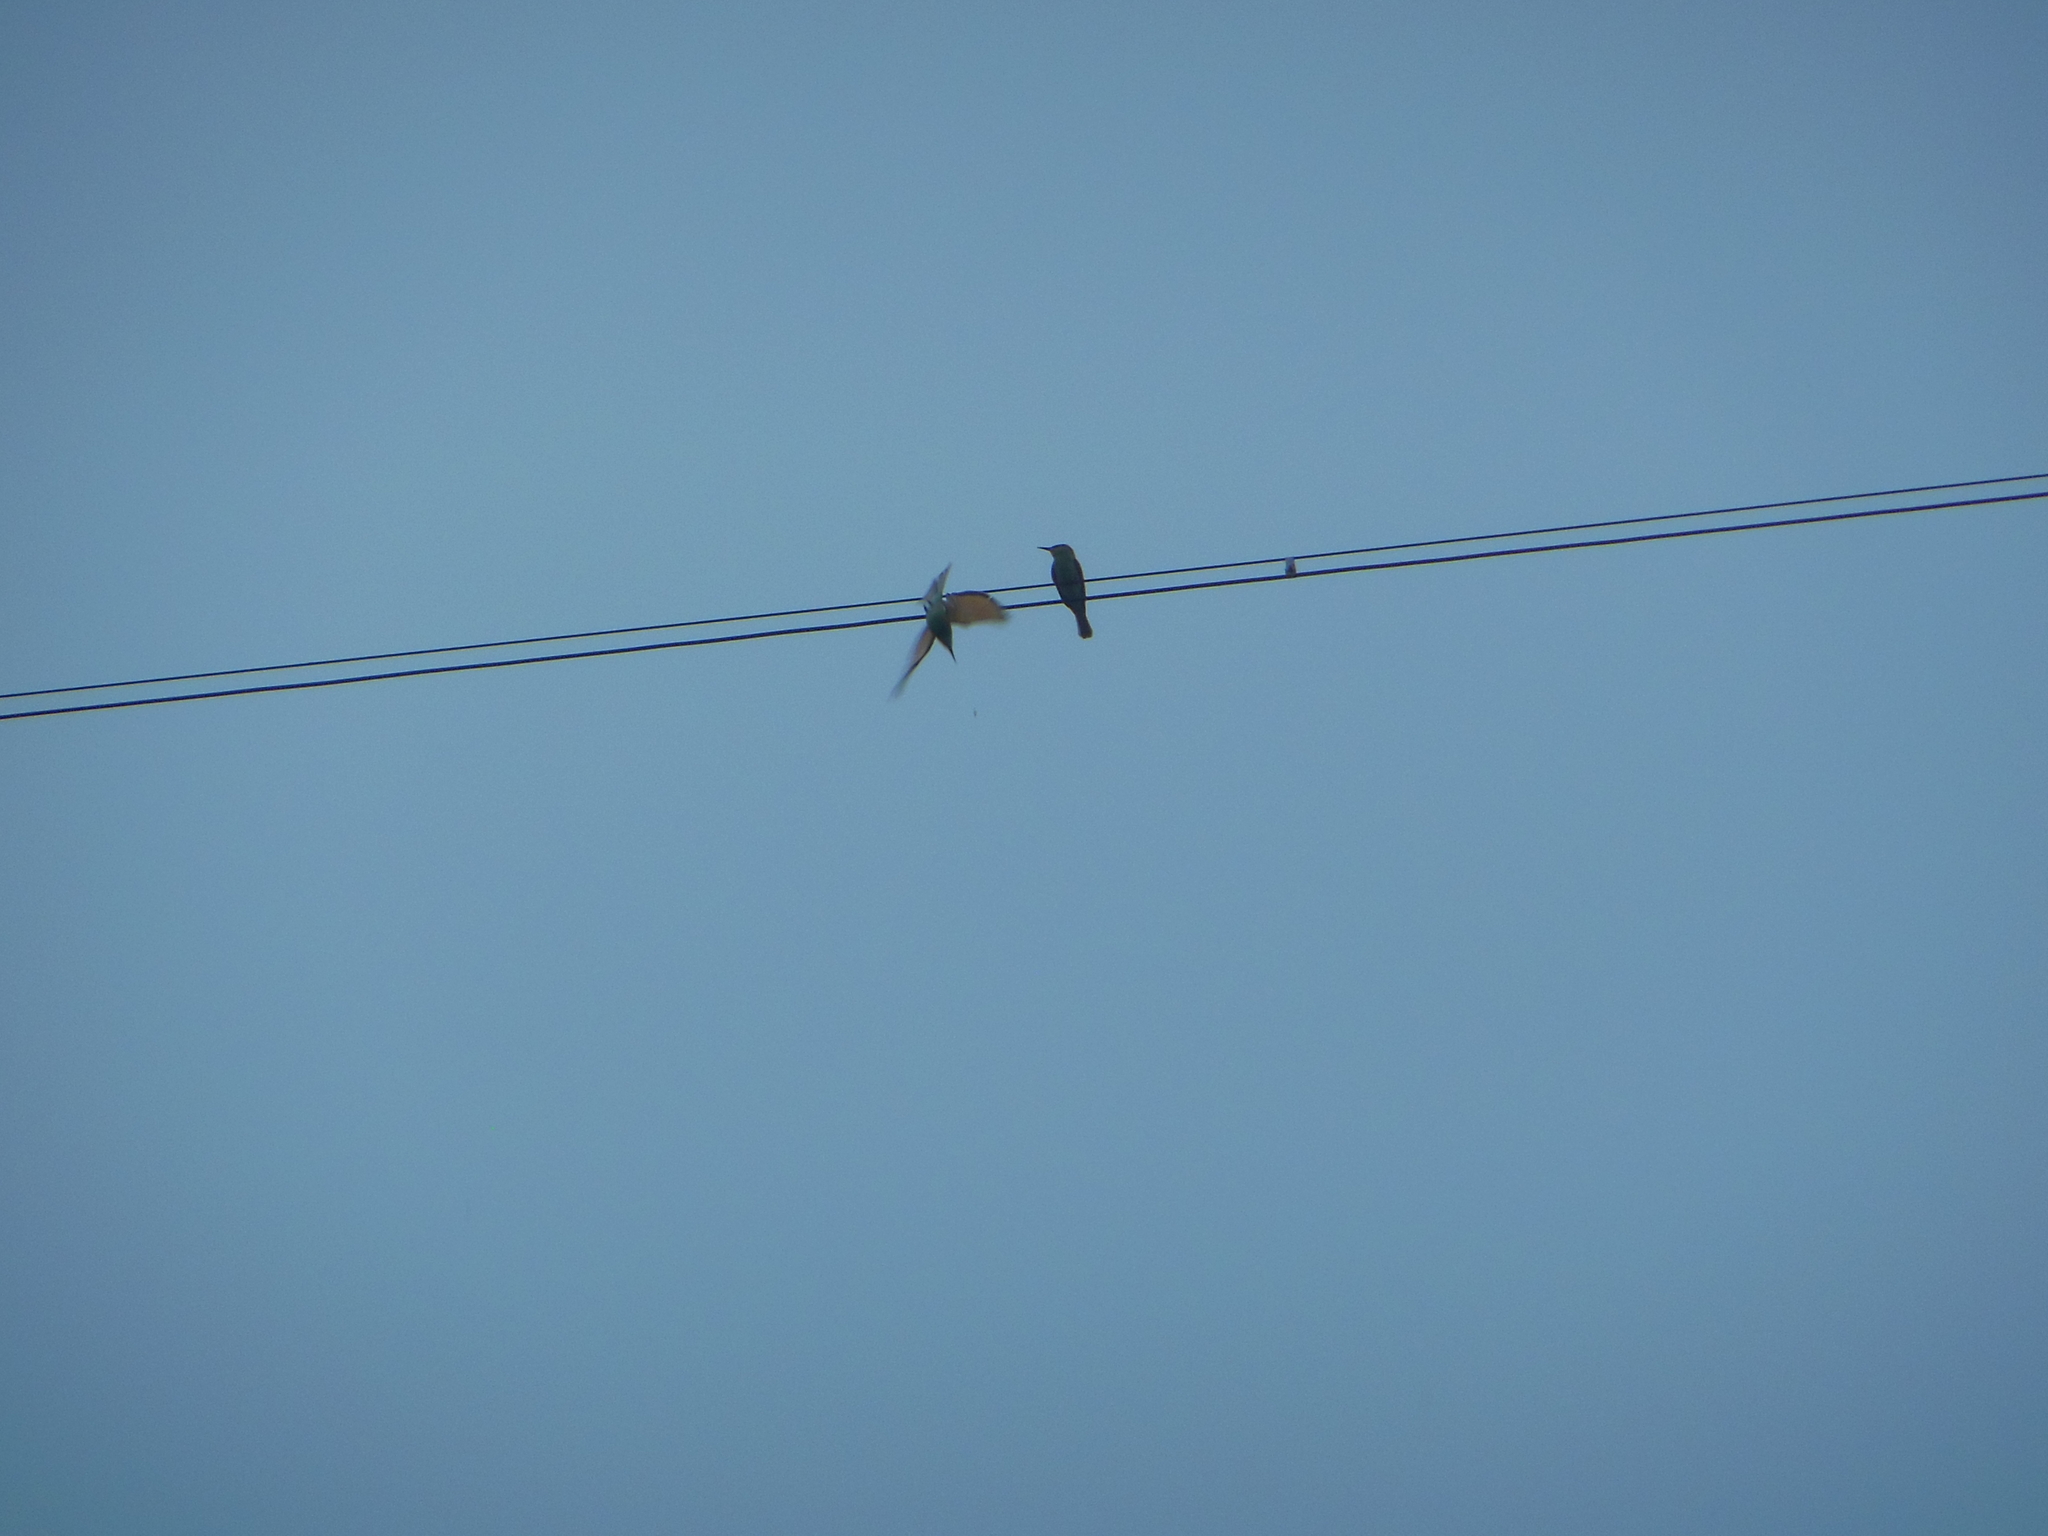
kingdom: Animalia
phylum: Chordata
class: Aves
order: Coraciiformes
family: Meropidae
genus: Merops
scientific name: Merops orientalis
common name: Green bee-eater
